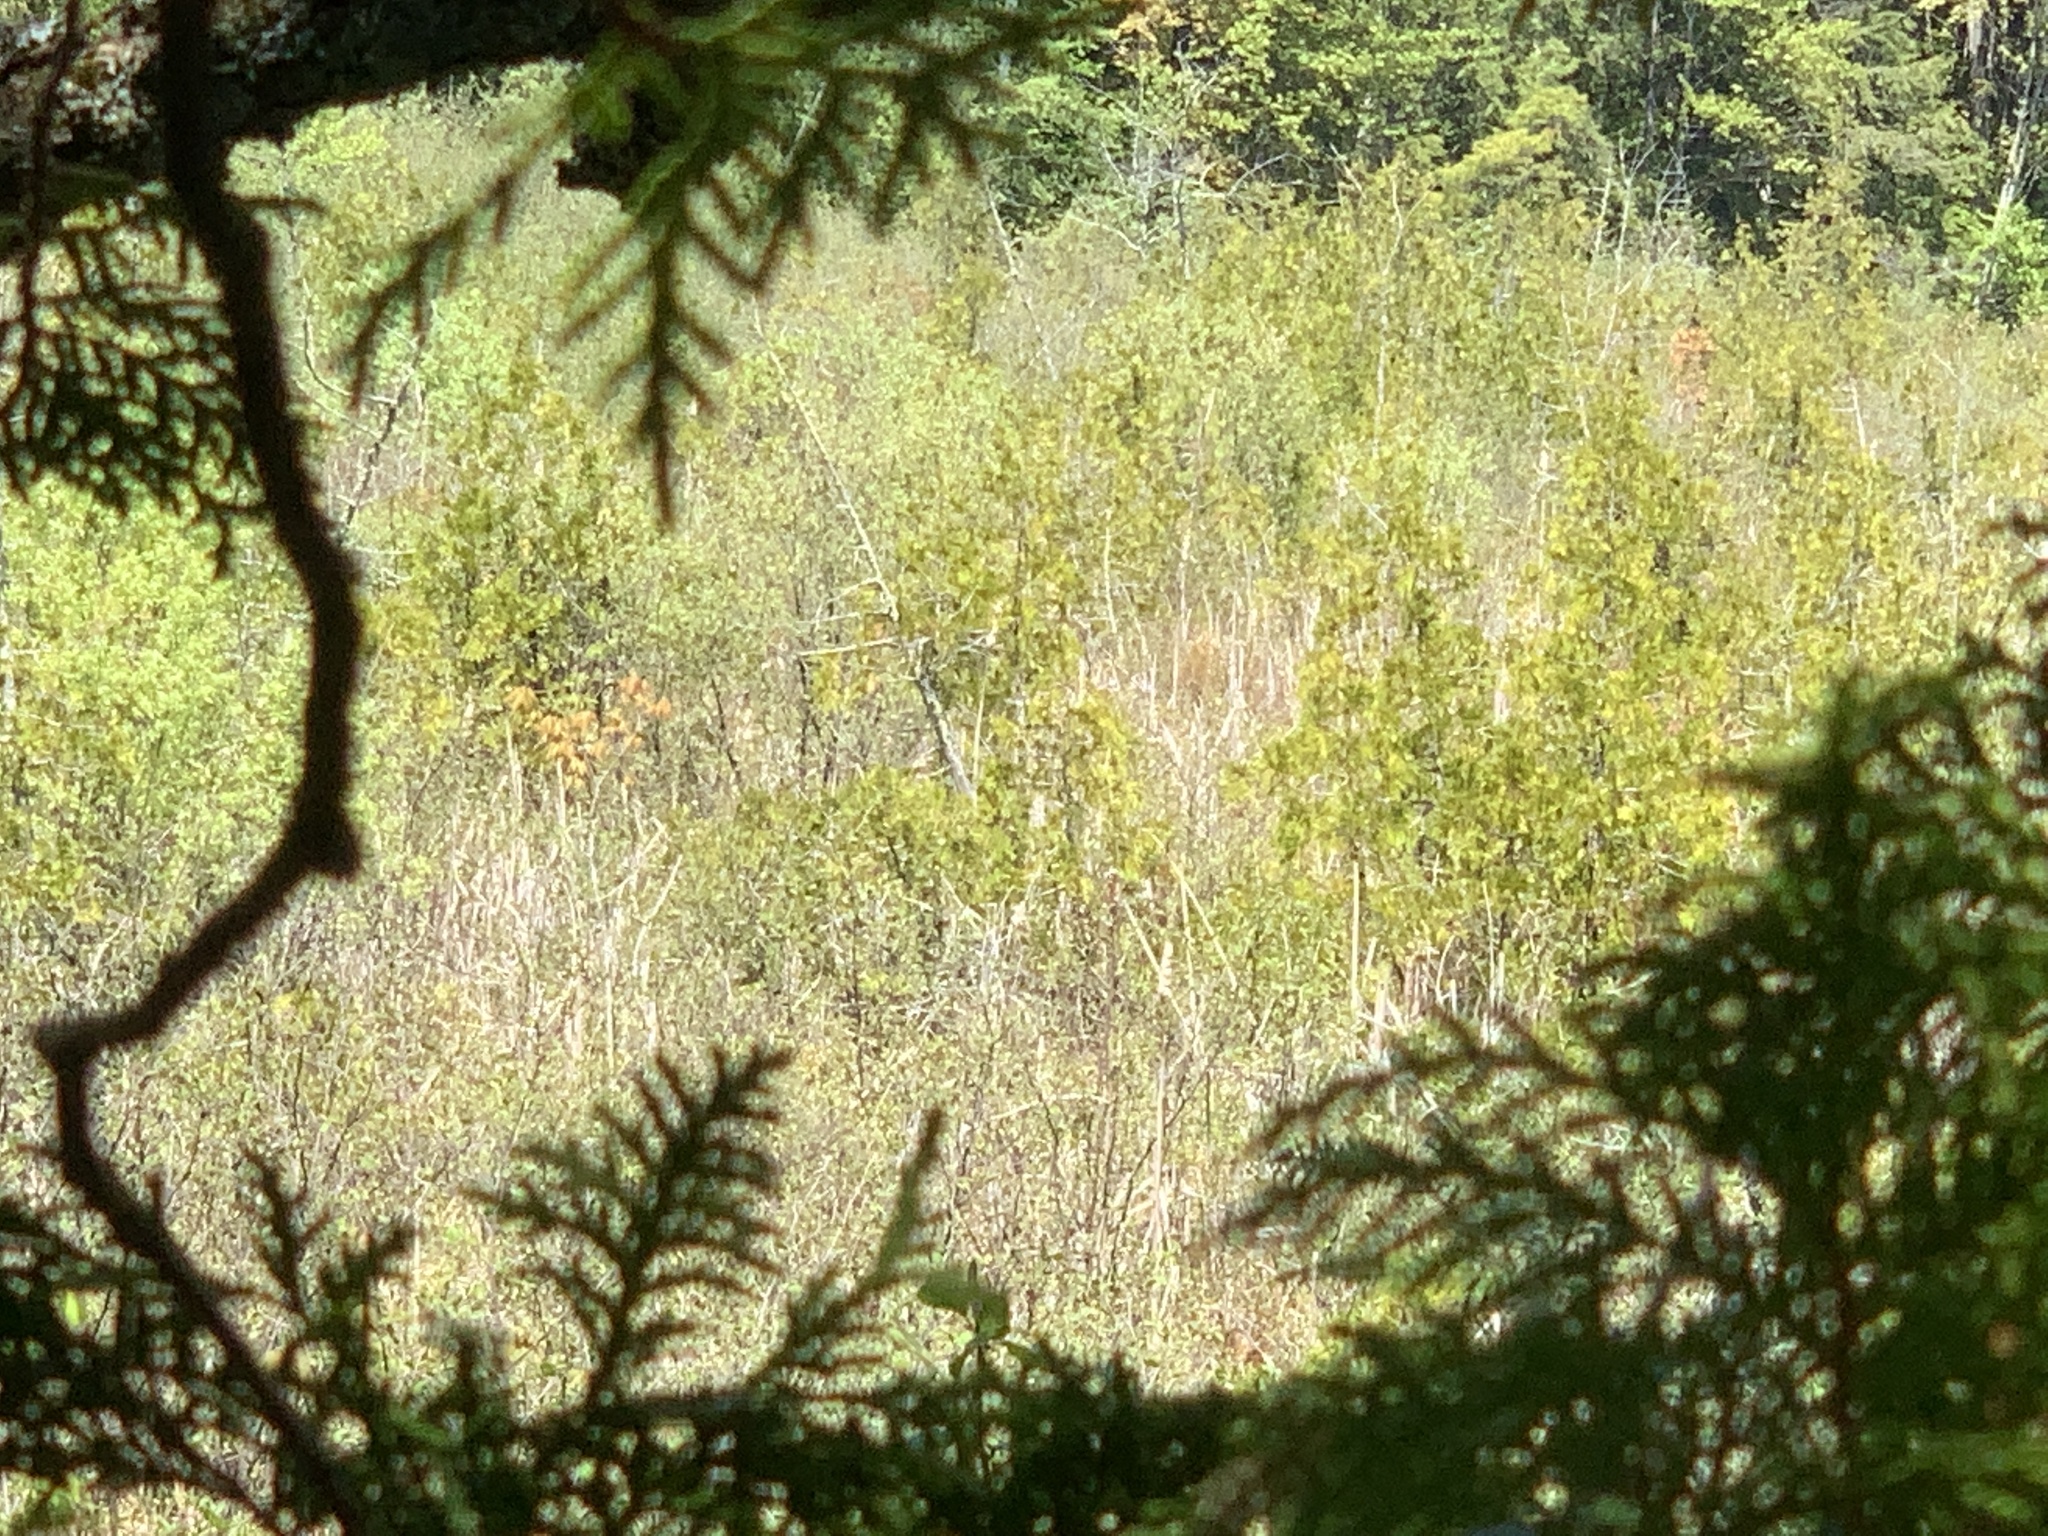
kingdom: Plantae
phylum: Tracheophyta
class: Pinopsida
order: Pinales
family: Cupressaceae
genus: Thuja
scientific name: Thuja occidentalis
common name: Northern white-cedar
